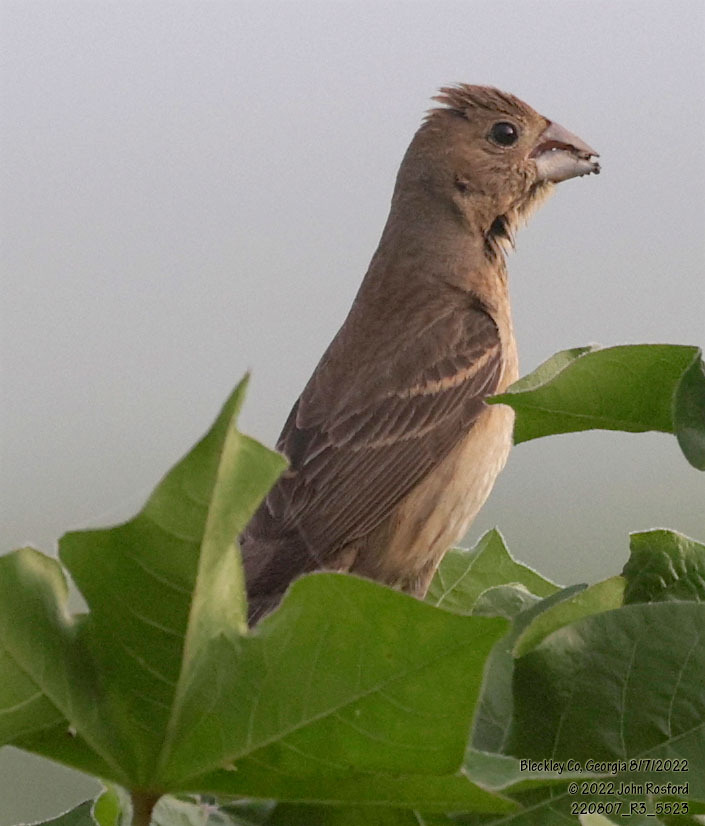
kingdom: Animalia
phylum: Chordata
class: Aves
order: Passeriformes
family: Cardinalidae
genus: Passerina
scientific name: Passerina caerulea
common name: Blue grosbeak
